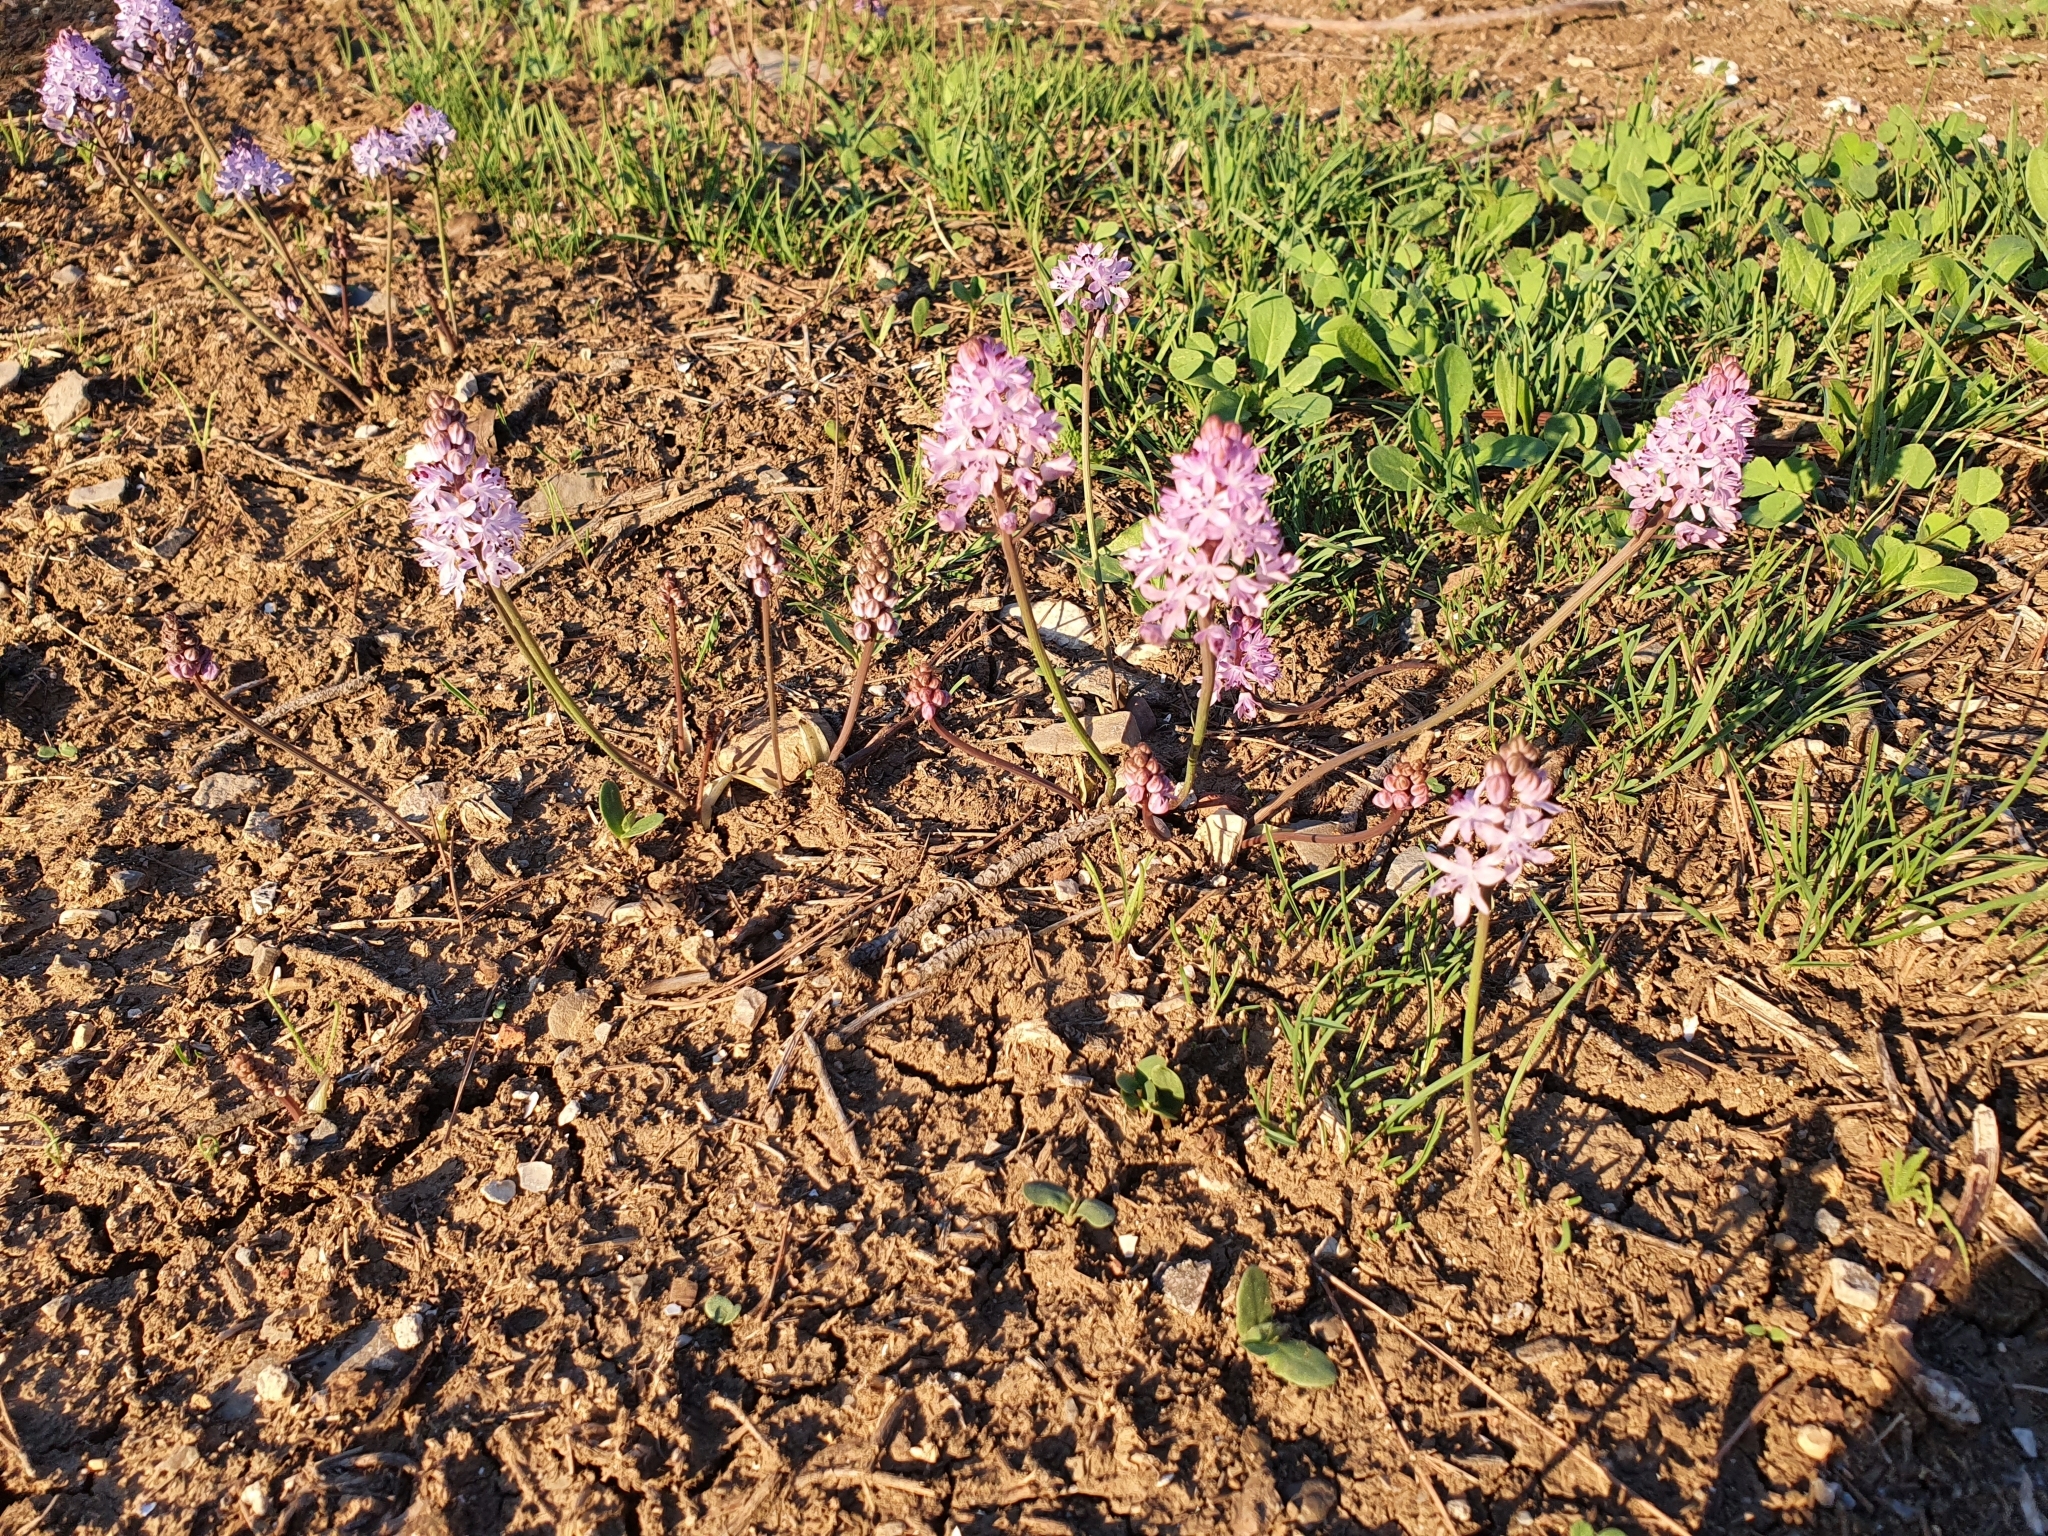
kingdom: Plantae
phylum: Tracheophyta
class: Liliopsida
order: Asparagales
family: Asparagaceae
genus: Prospero
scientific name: Prospero obtusifolium
